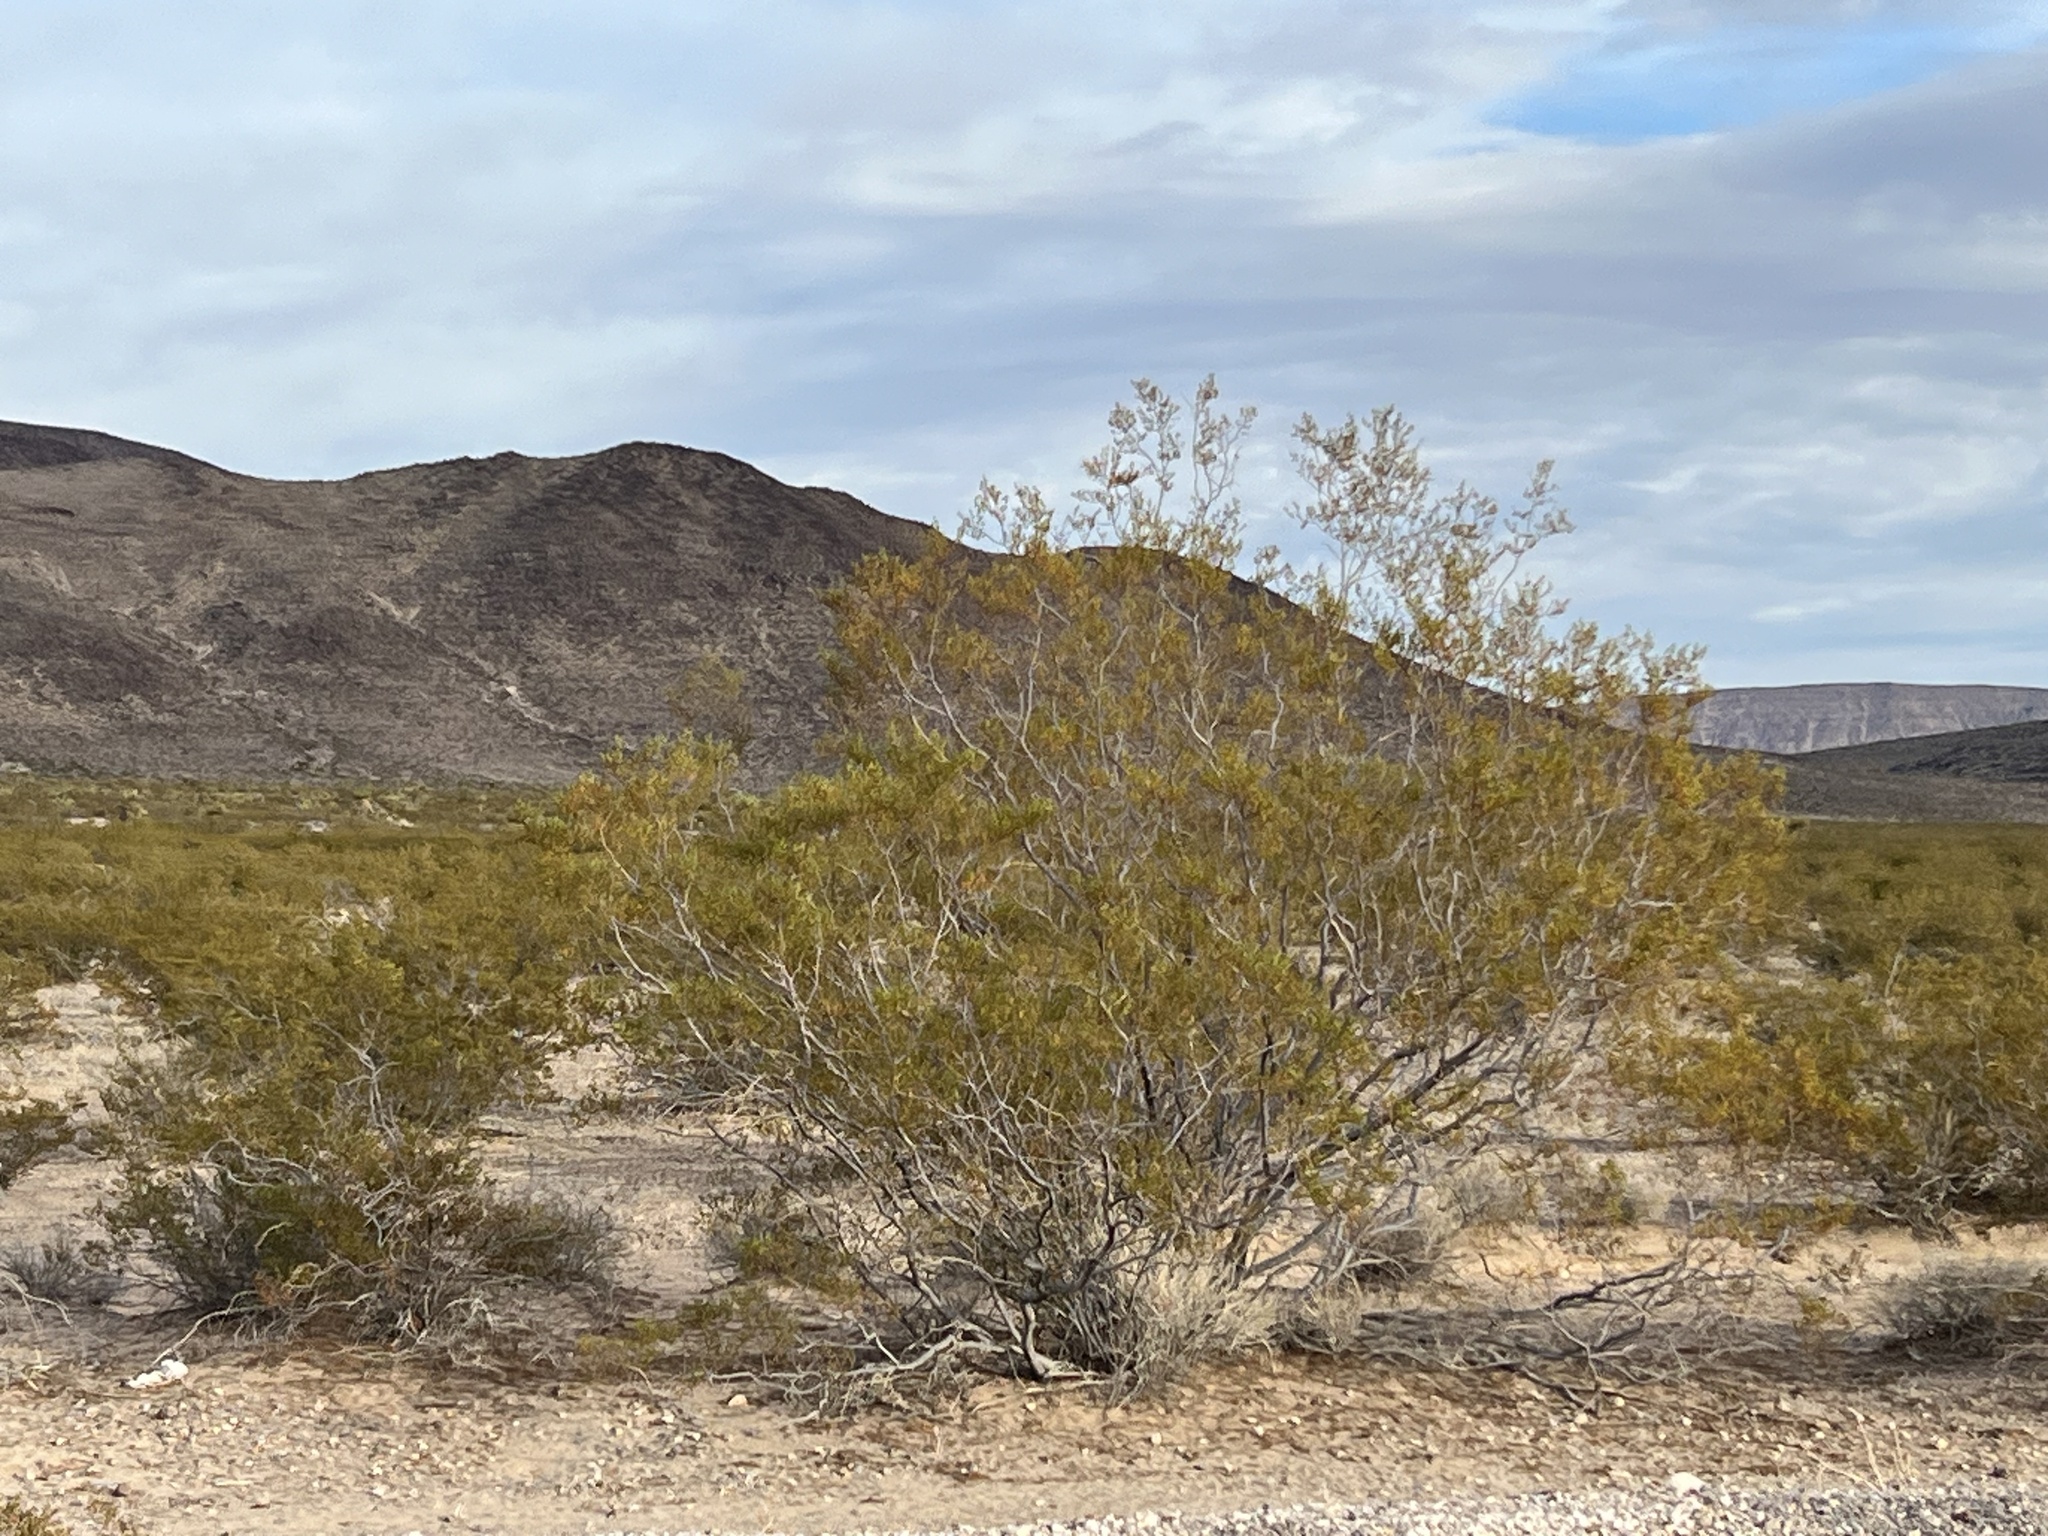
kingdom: Plantae
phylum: Tracheophyta
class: Magnoliopsida
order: Zygophyllales
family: Zygophyllaceae
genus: Larrea
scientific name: Larrea tridentata
